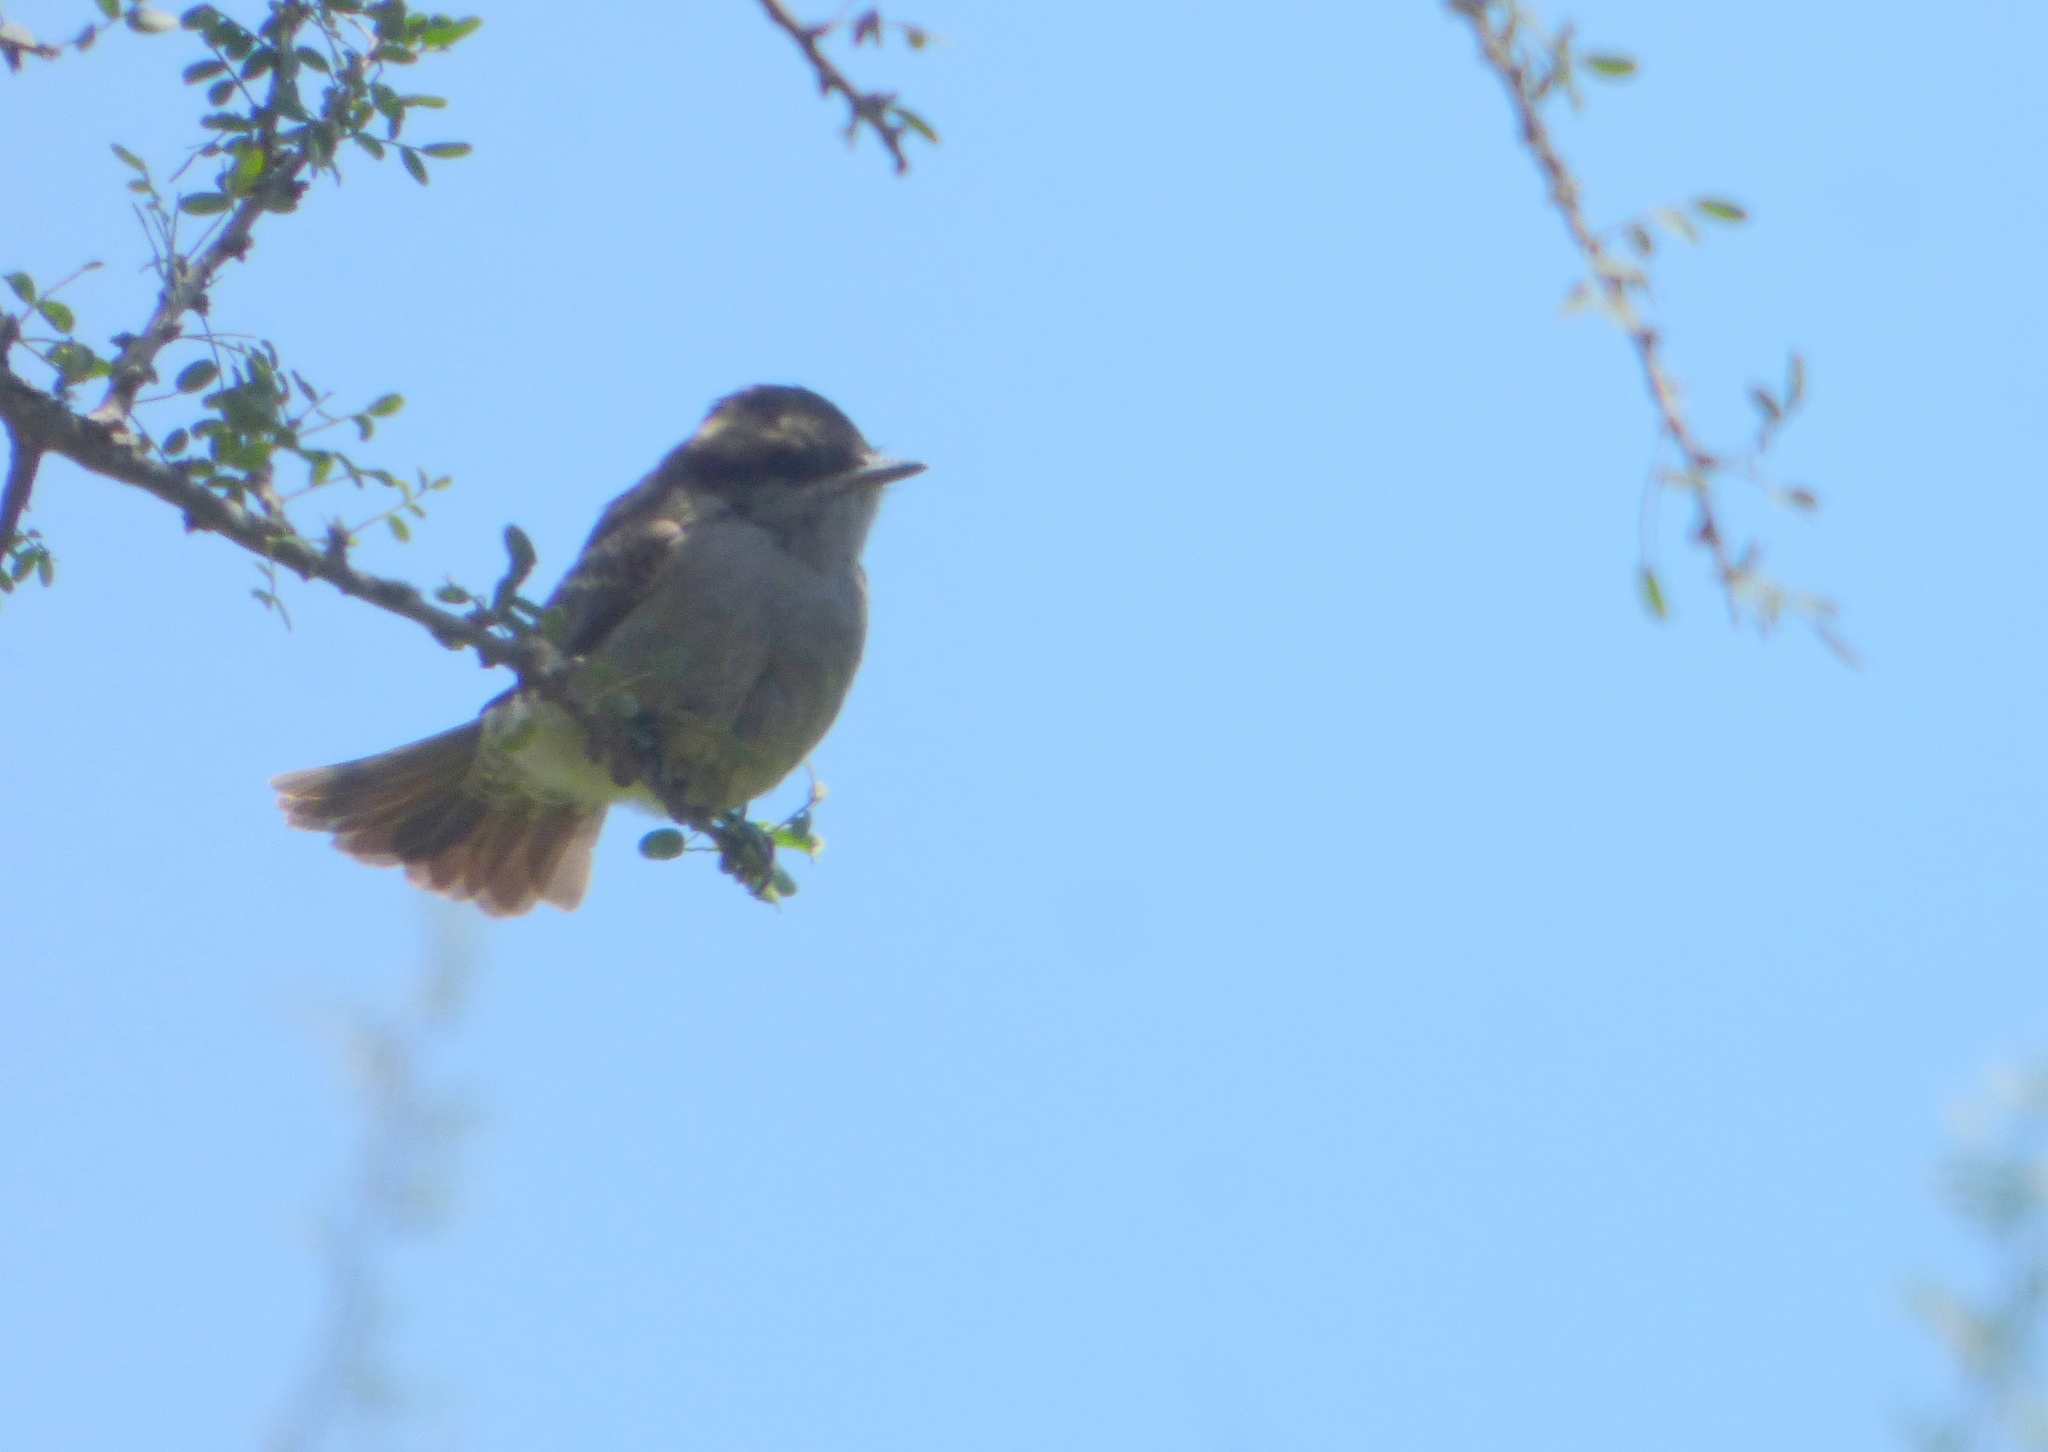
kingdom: Animalia
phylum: Chordata
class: Aves
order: Passeriformes
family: Tyrannidae
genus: Empidonomus
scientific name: Empidonomus aurantioatrocristatus
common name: Crowned slaty flycatcher
